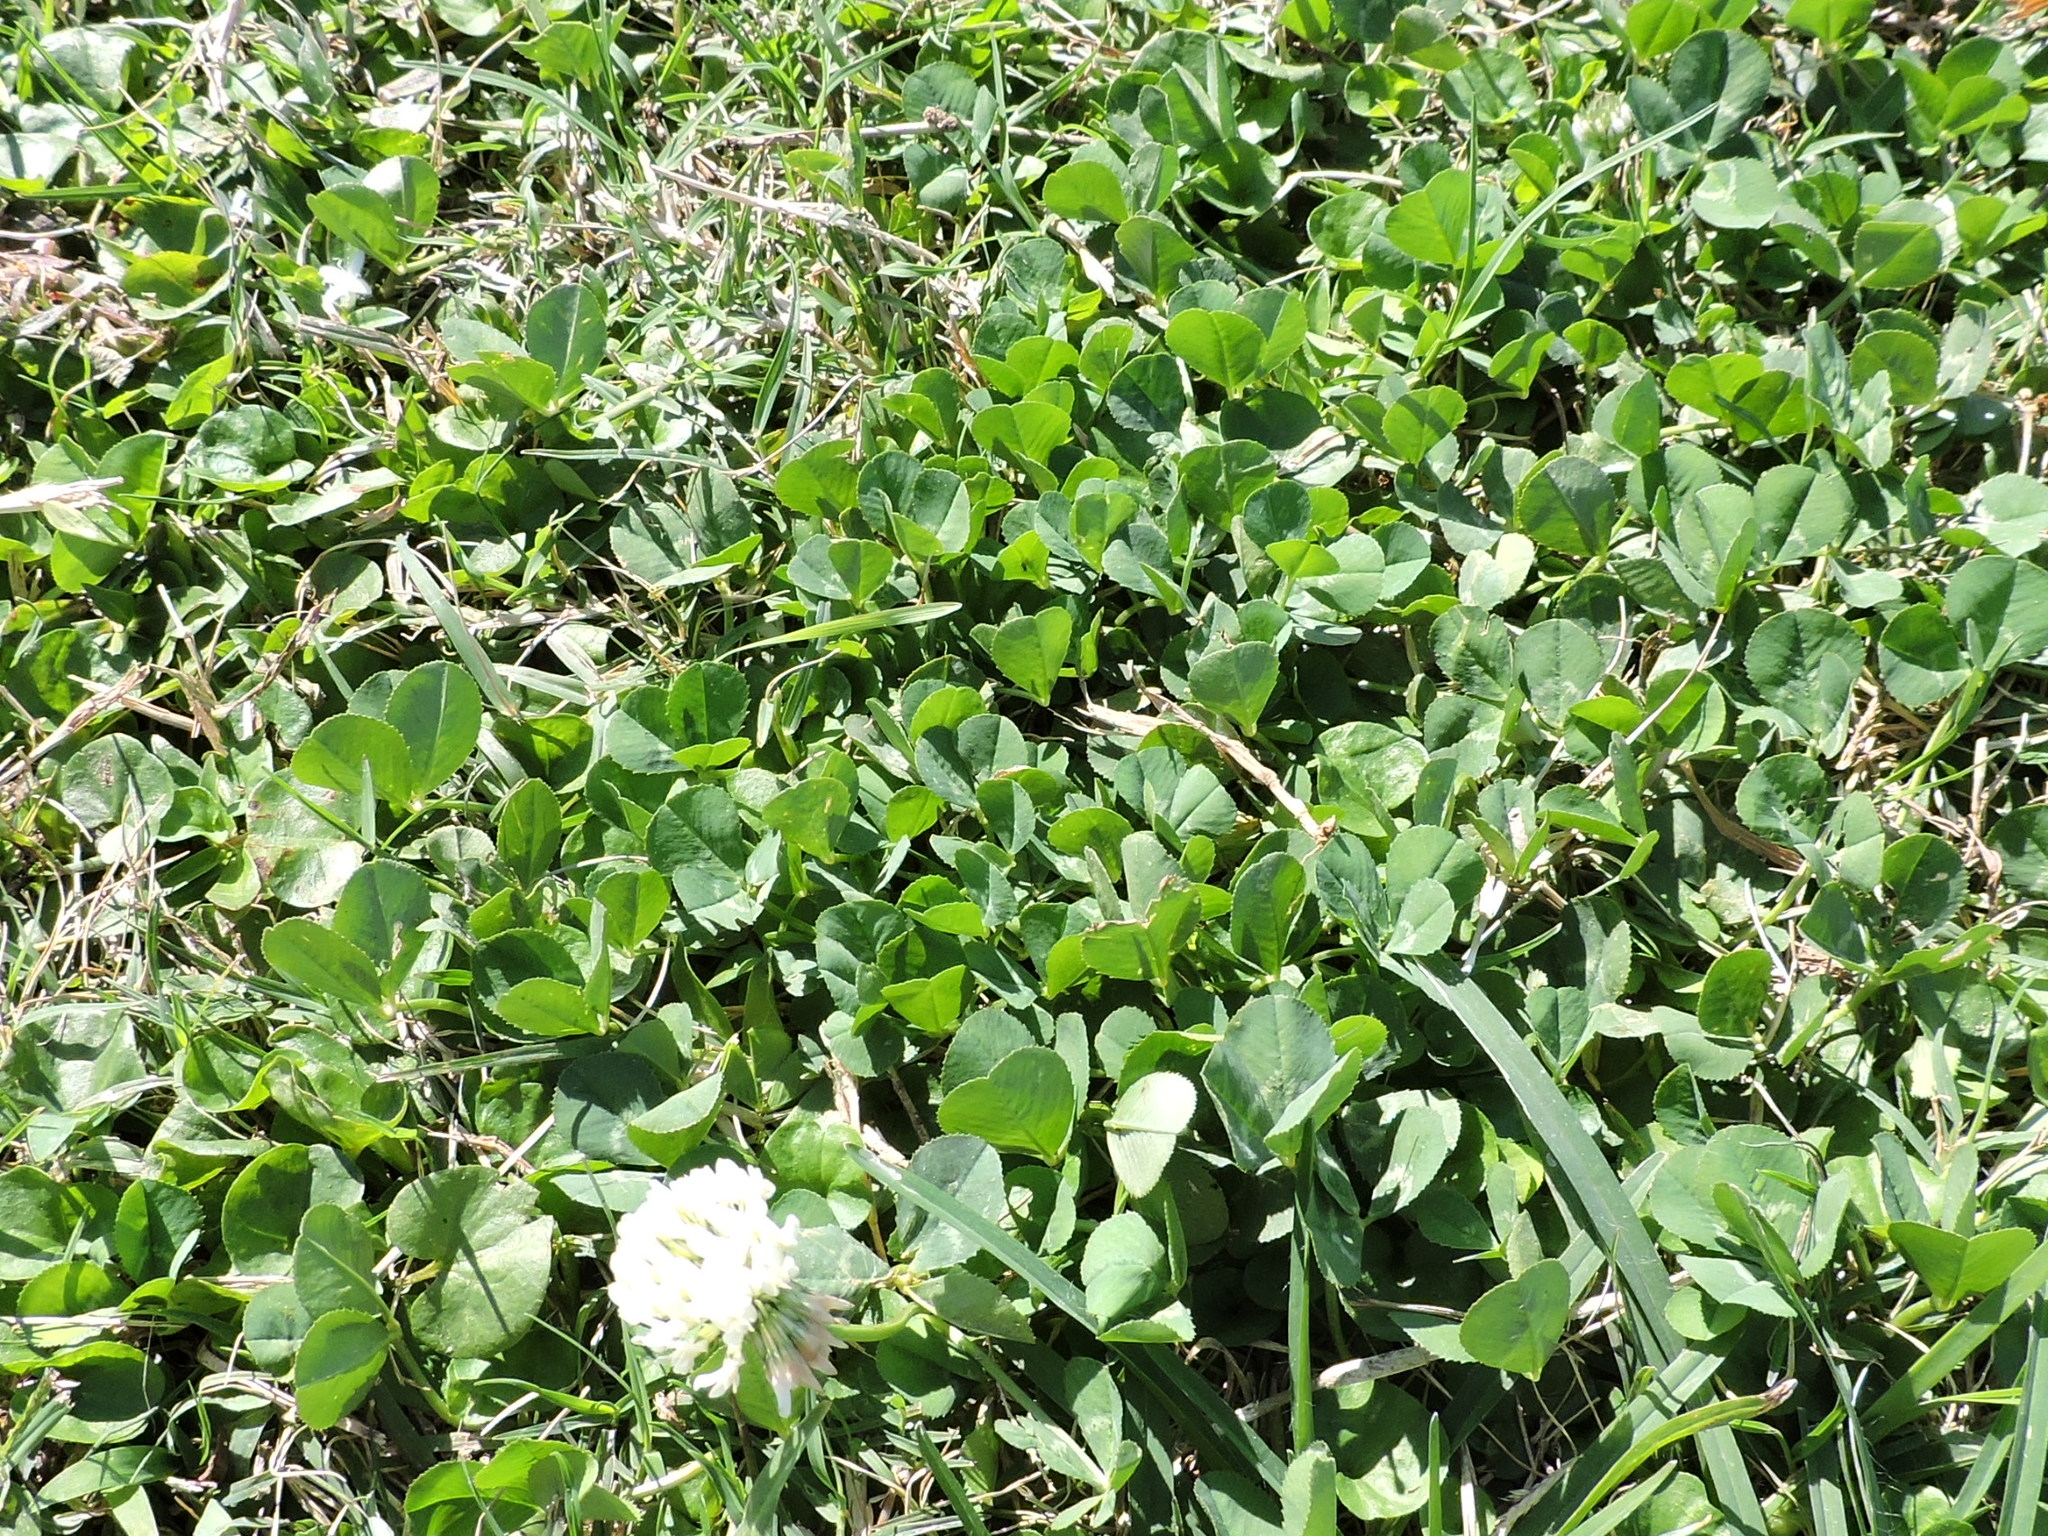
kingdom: Plantae
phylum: Tracheophyta
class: Magnoliopsida
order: Fabales
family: Fabaceae
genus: Trifolium
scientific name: Trifolium repens
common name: White clover
